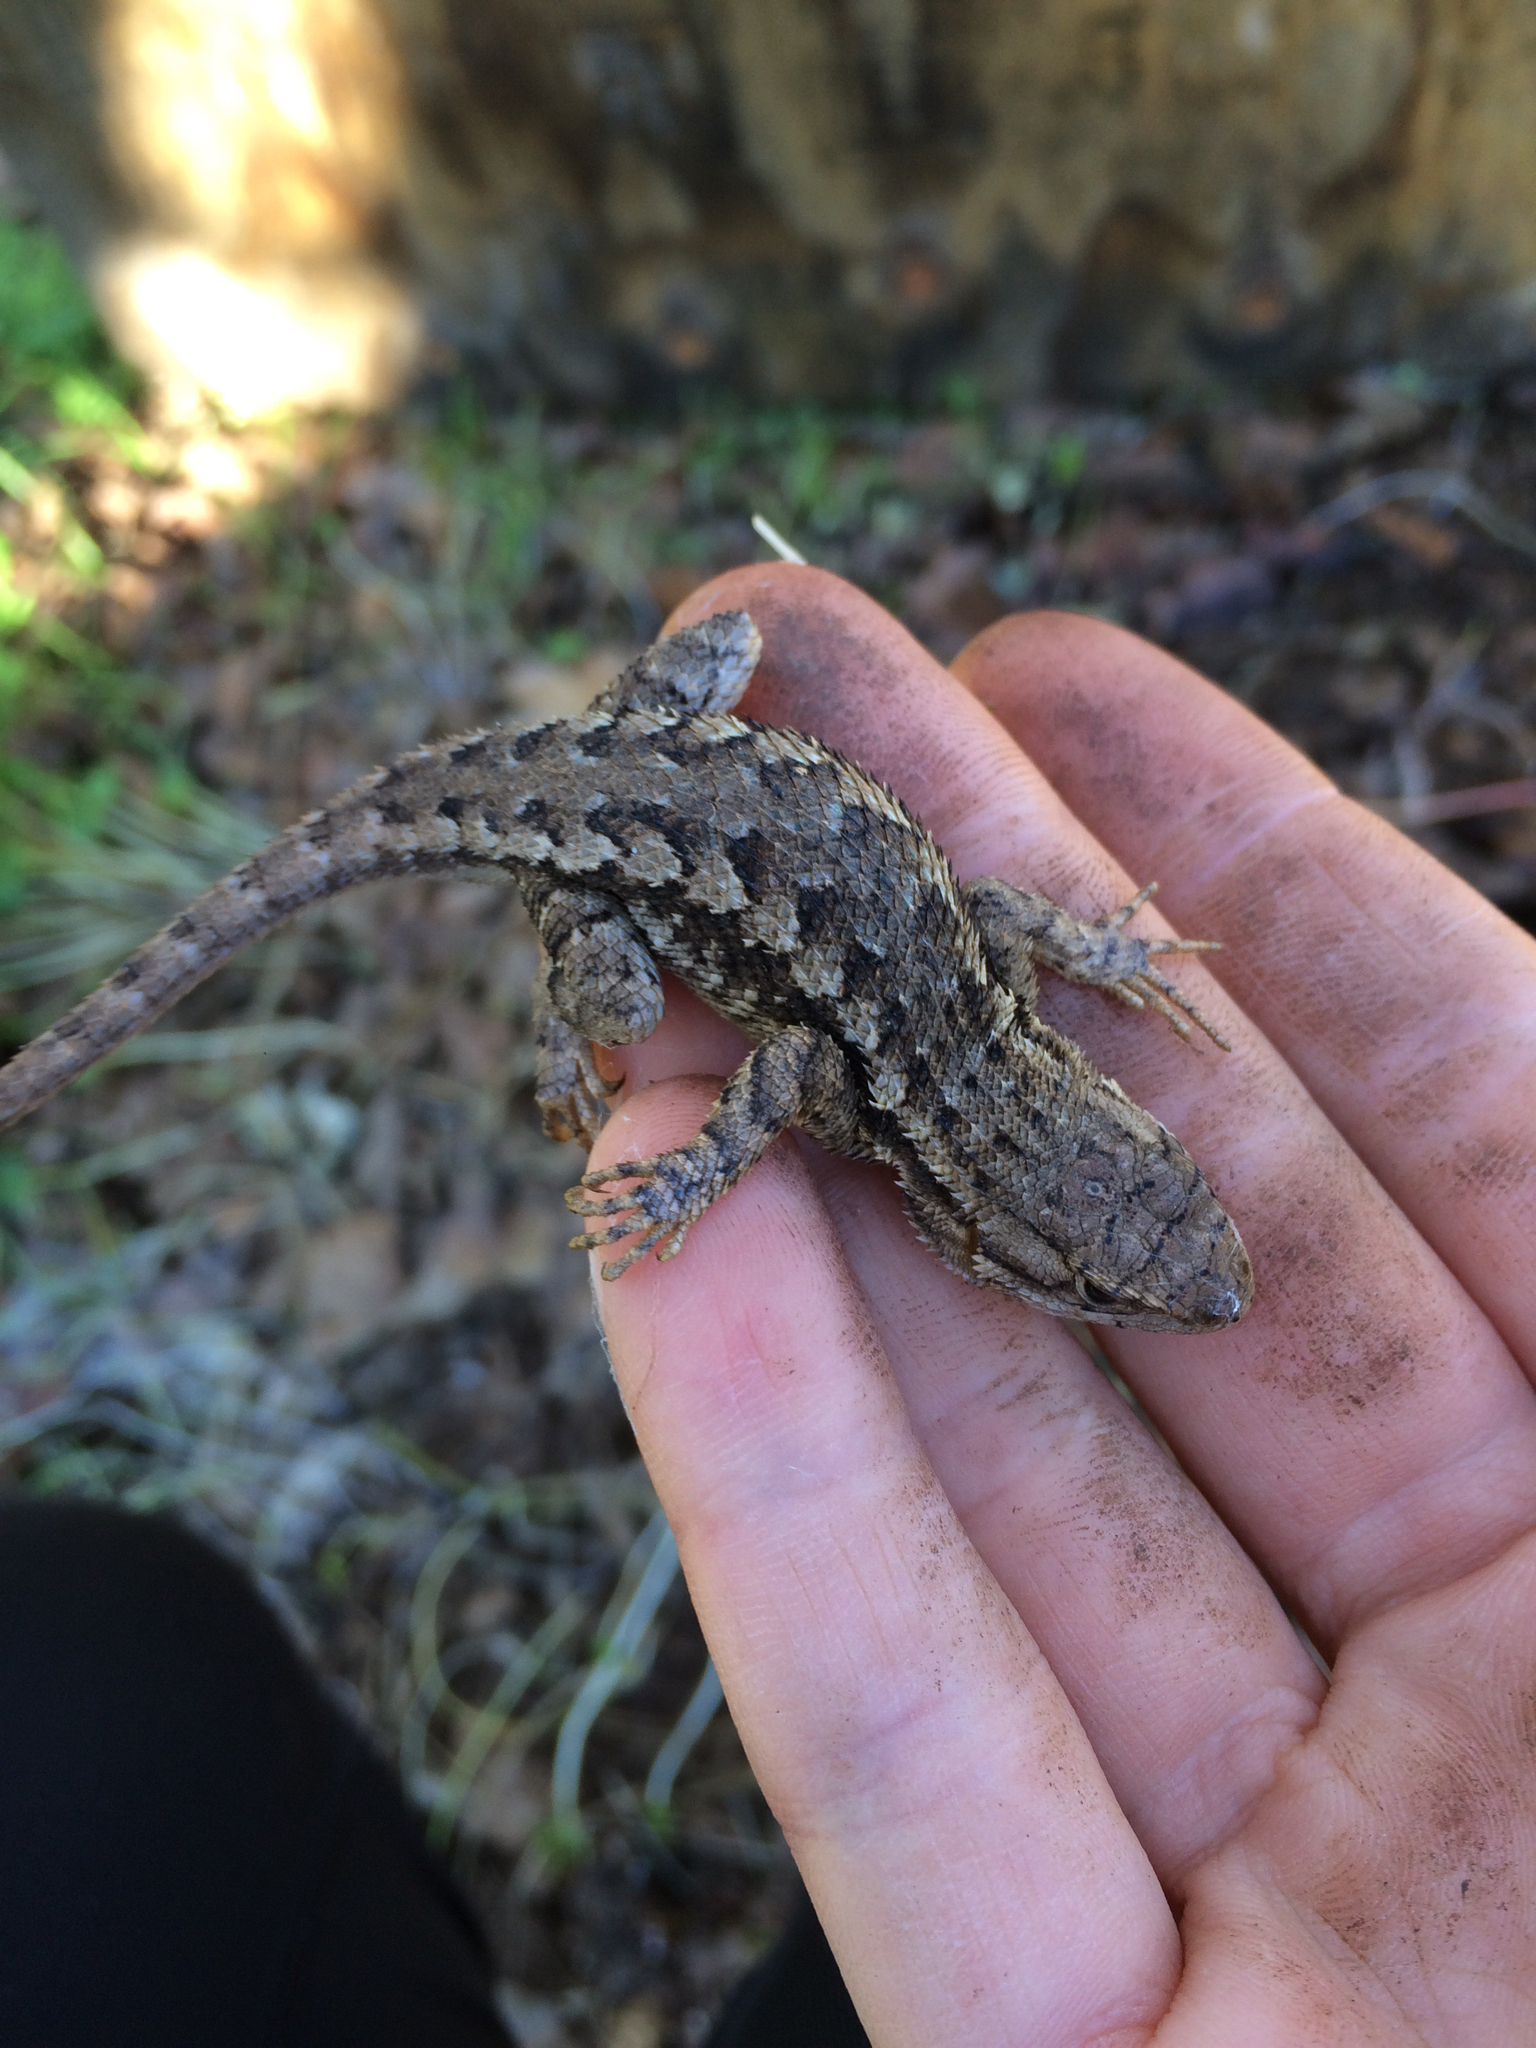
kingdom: Animalia
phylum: Chordata
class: Squamata
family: Phrynosomatidae
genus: Sceloporus
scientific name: Sceloporus occidentalis
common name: Western fence lizard
